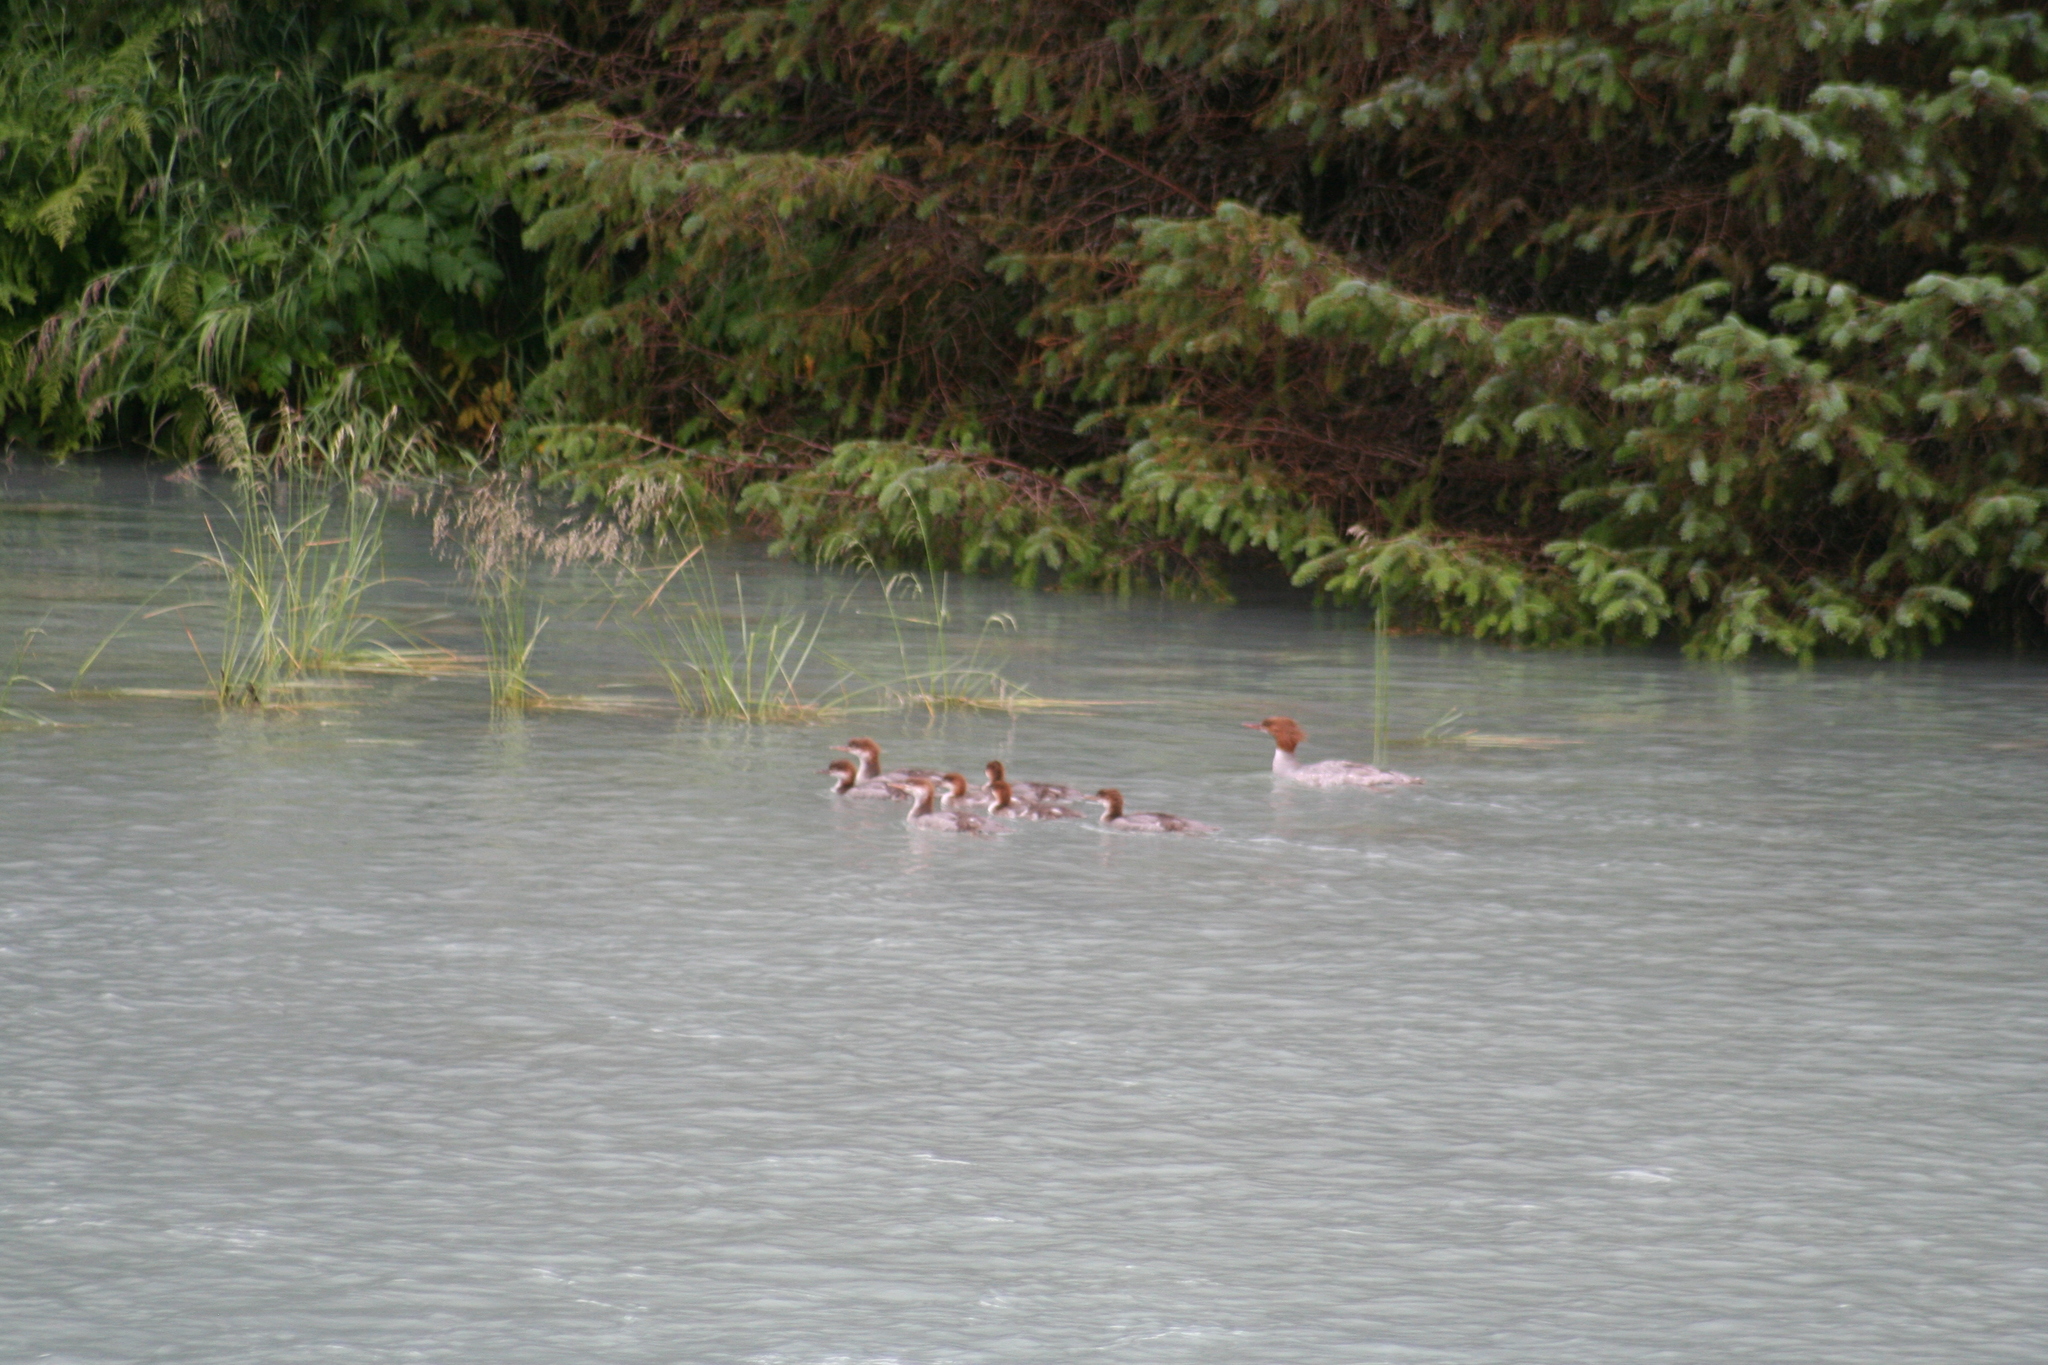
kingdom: Animalia
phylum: Chordata
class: Aves
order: Anseriformes
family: Anatidae
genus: Mergus
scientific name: Mergus merganser
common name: Common merganser
